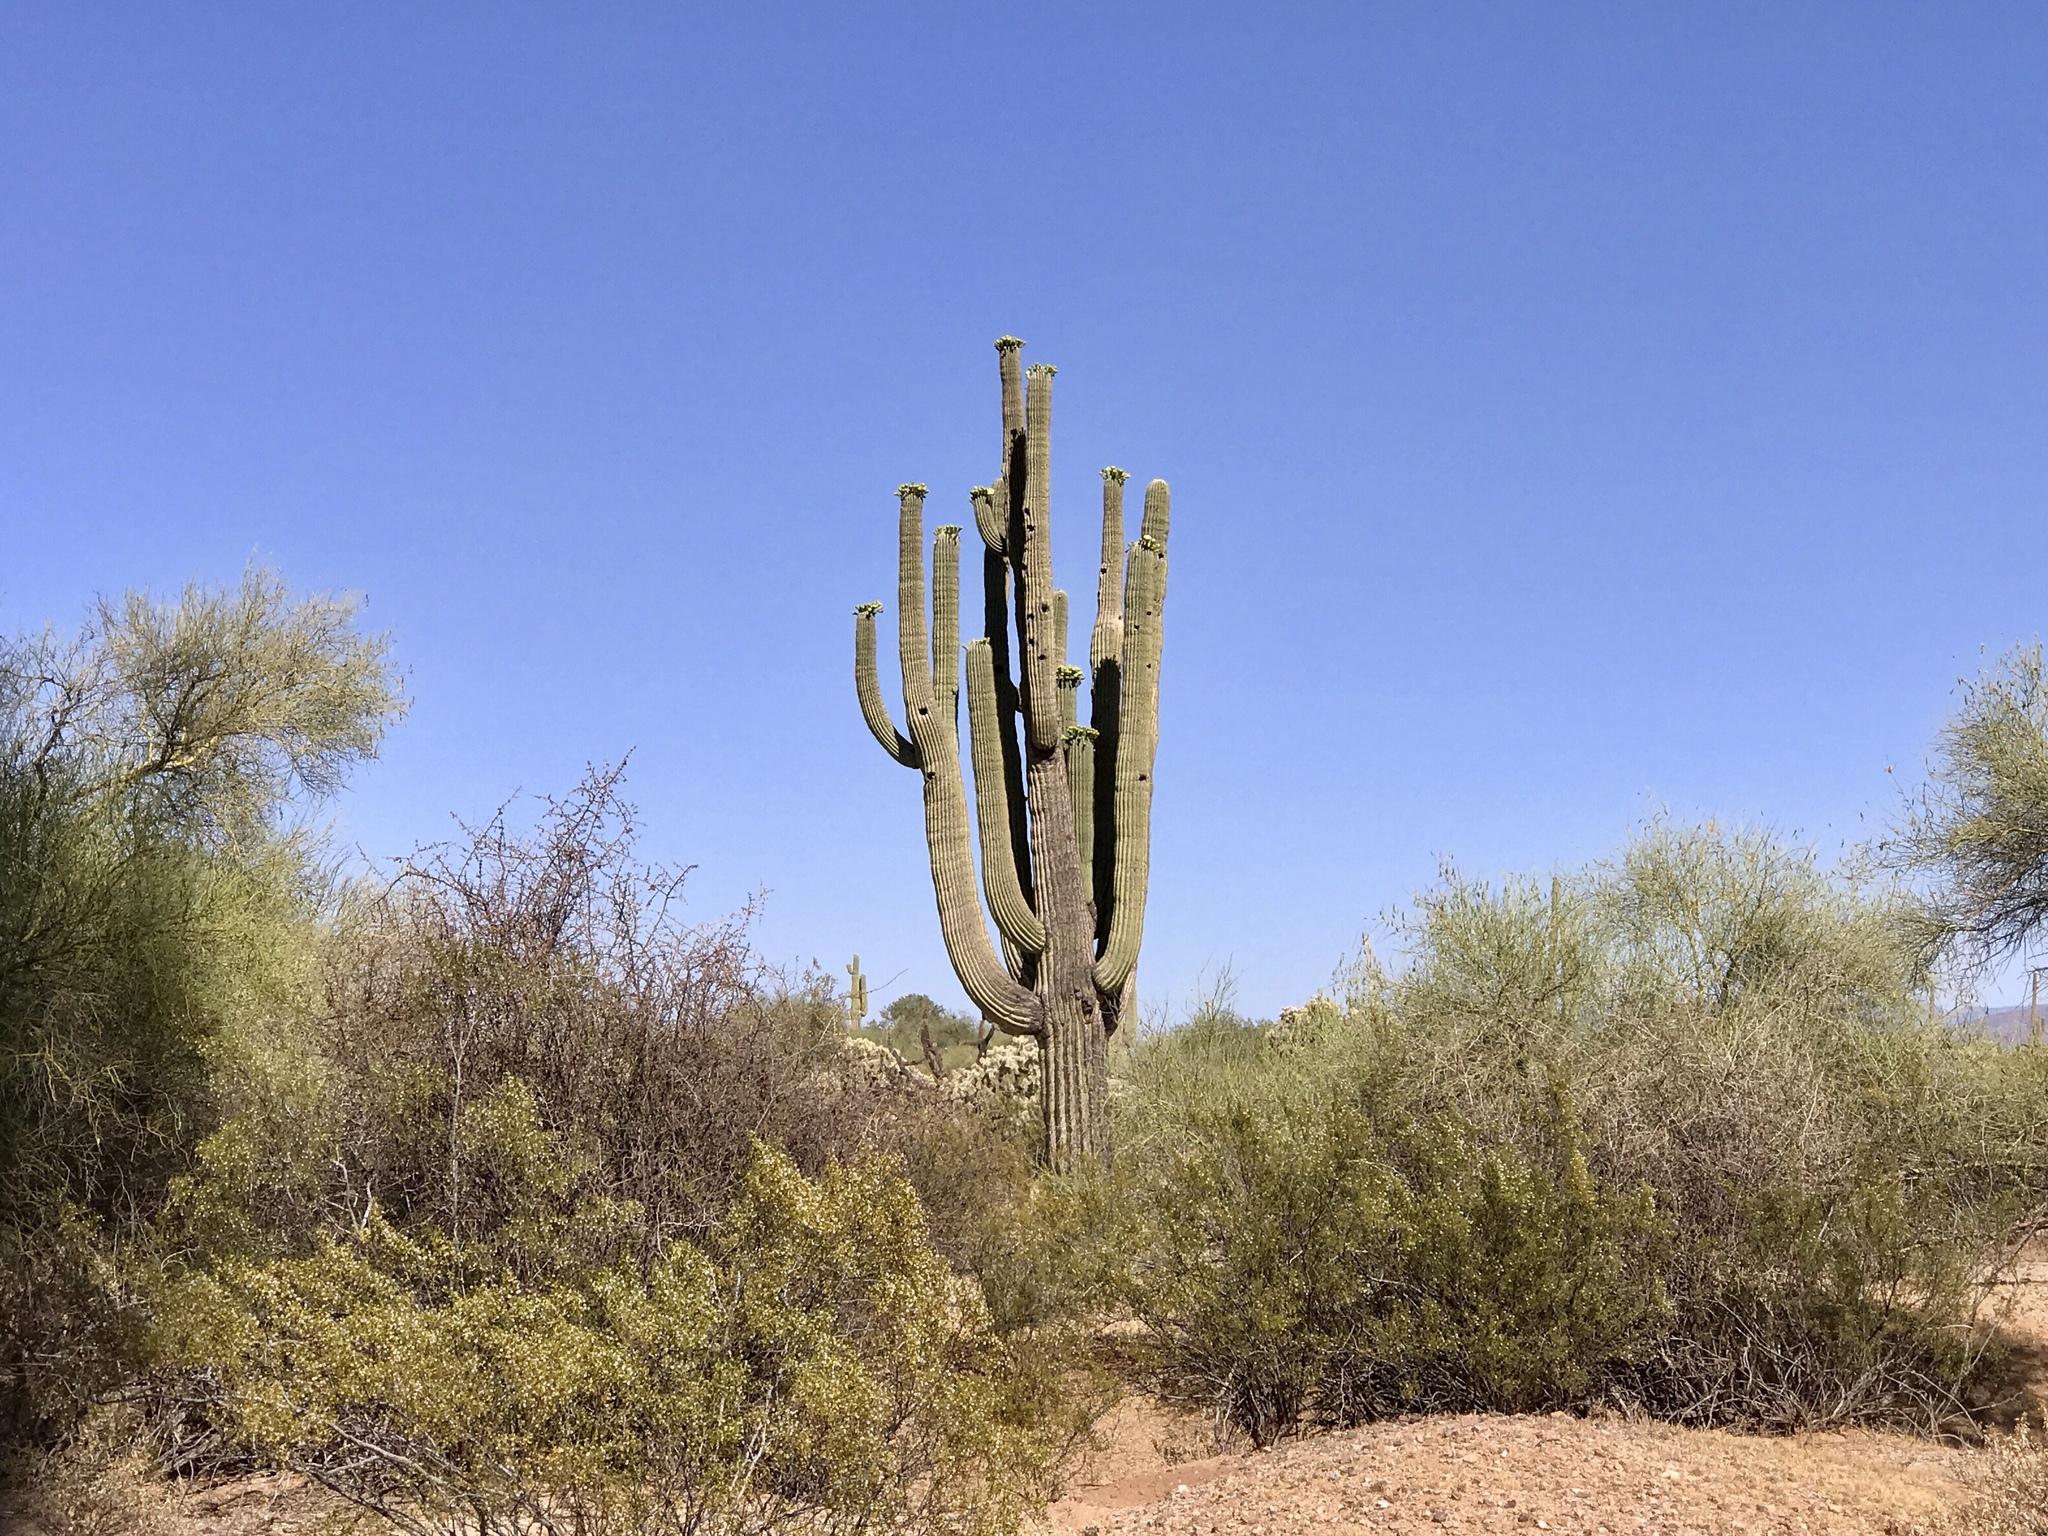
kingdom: Plantae
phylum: Tracheophyta
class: Magnoliopsida
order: Caryophyllales
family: Cactaceae
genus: Carnegiea
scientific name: Carnegiea gigantea
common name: Saguaro
